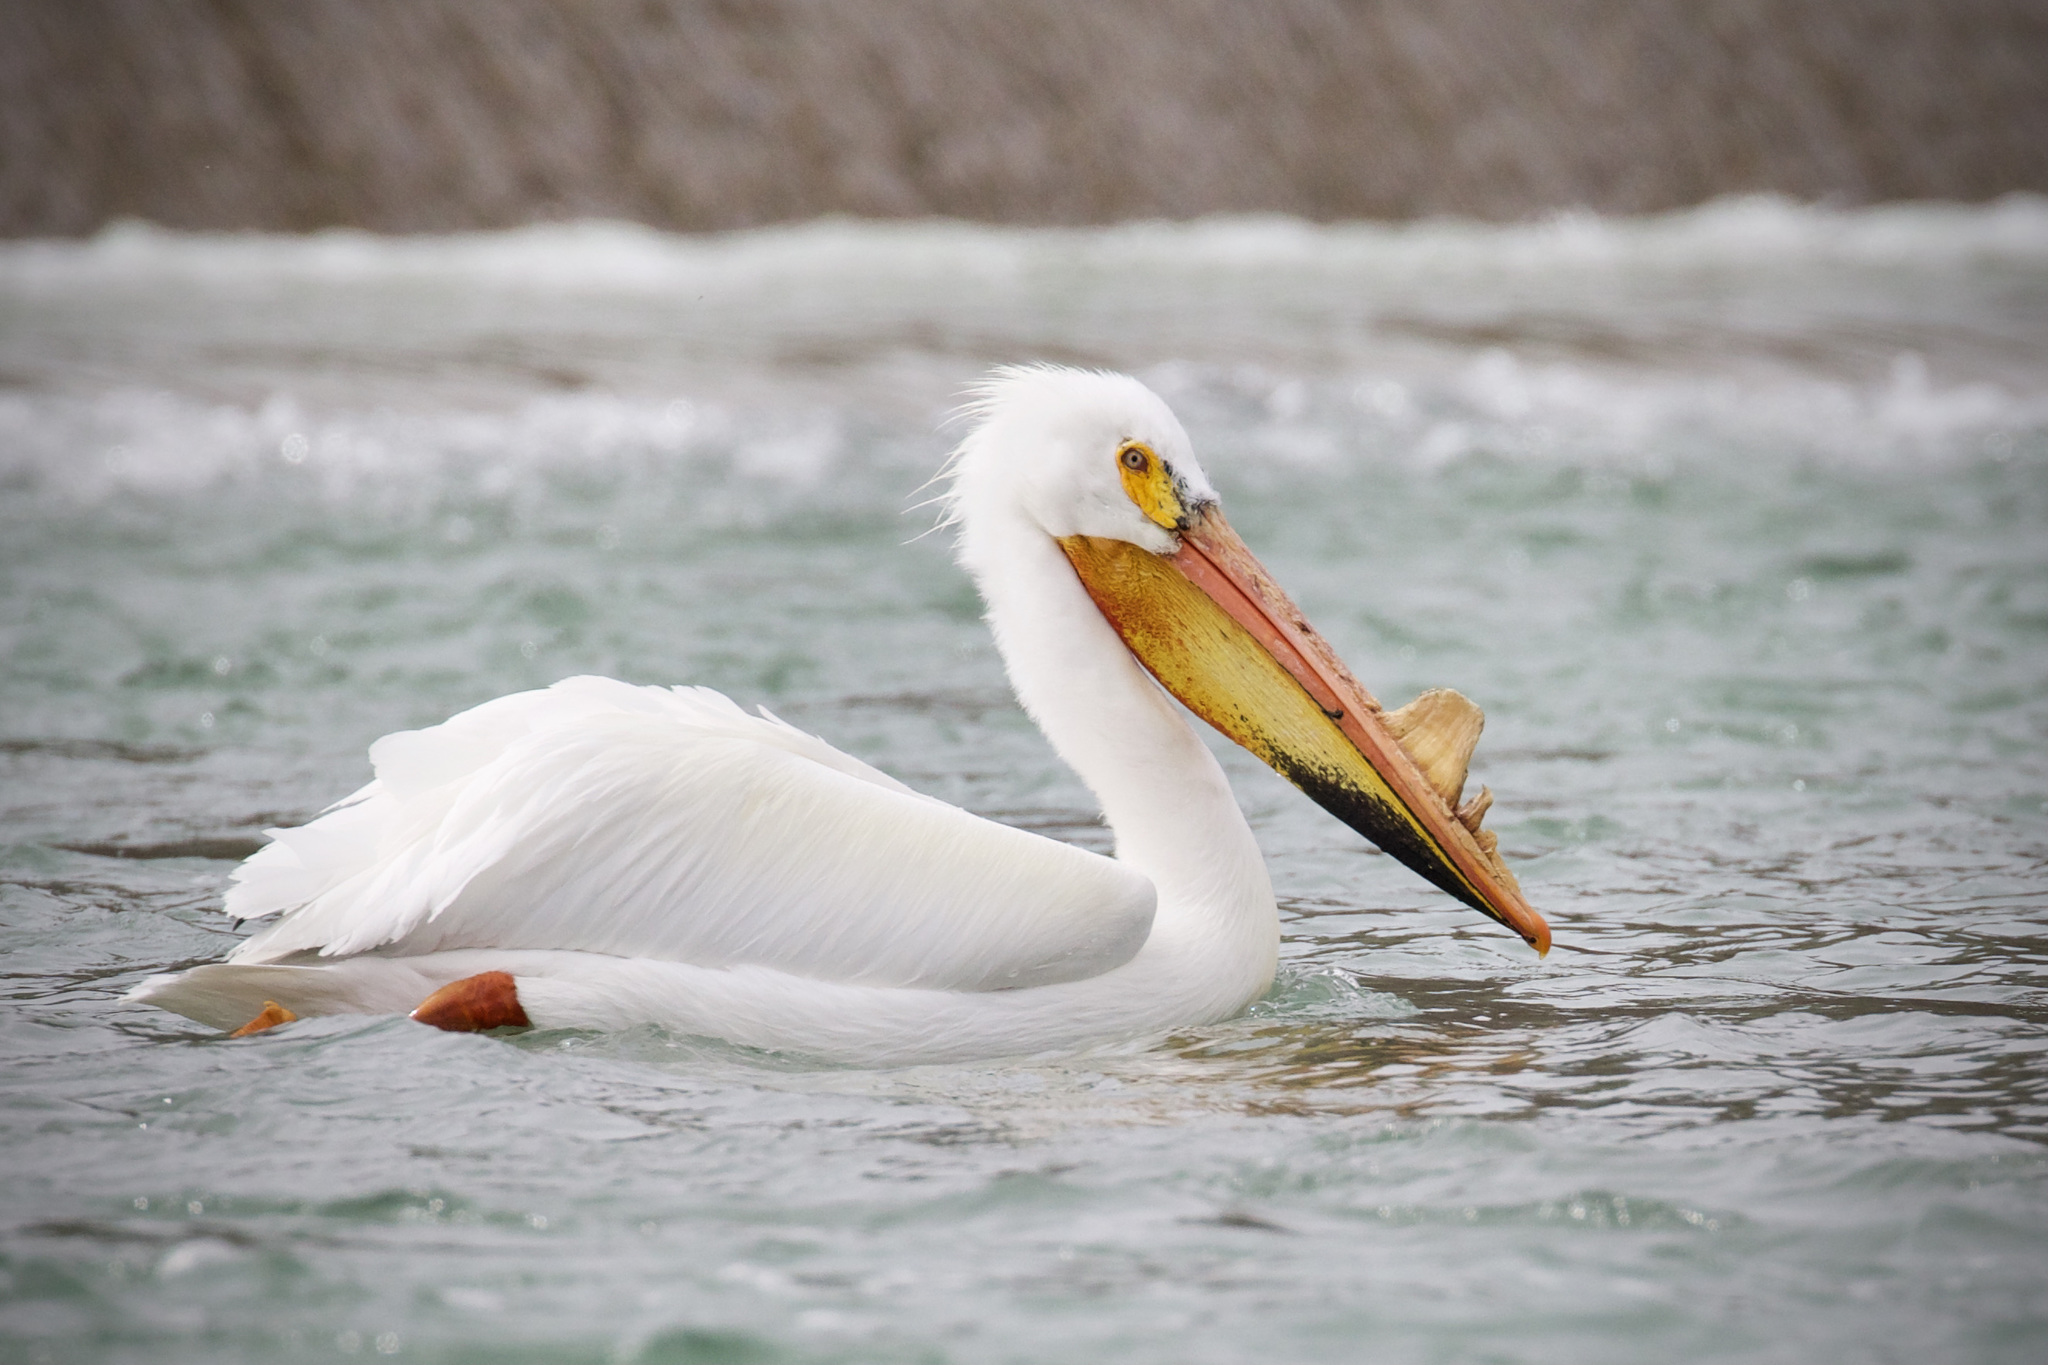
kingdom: Animalia
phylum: Chordata
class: Aves
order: Pelecaniformes
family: Pelecanidae
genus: Pelecanus
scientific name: Pelecanus erythrorhynchos
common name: American white pelican
